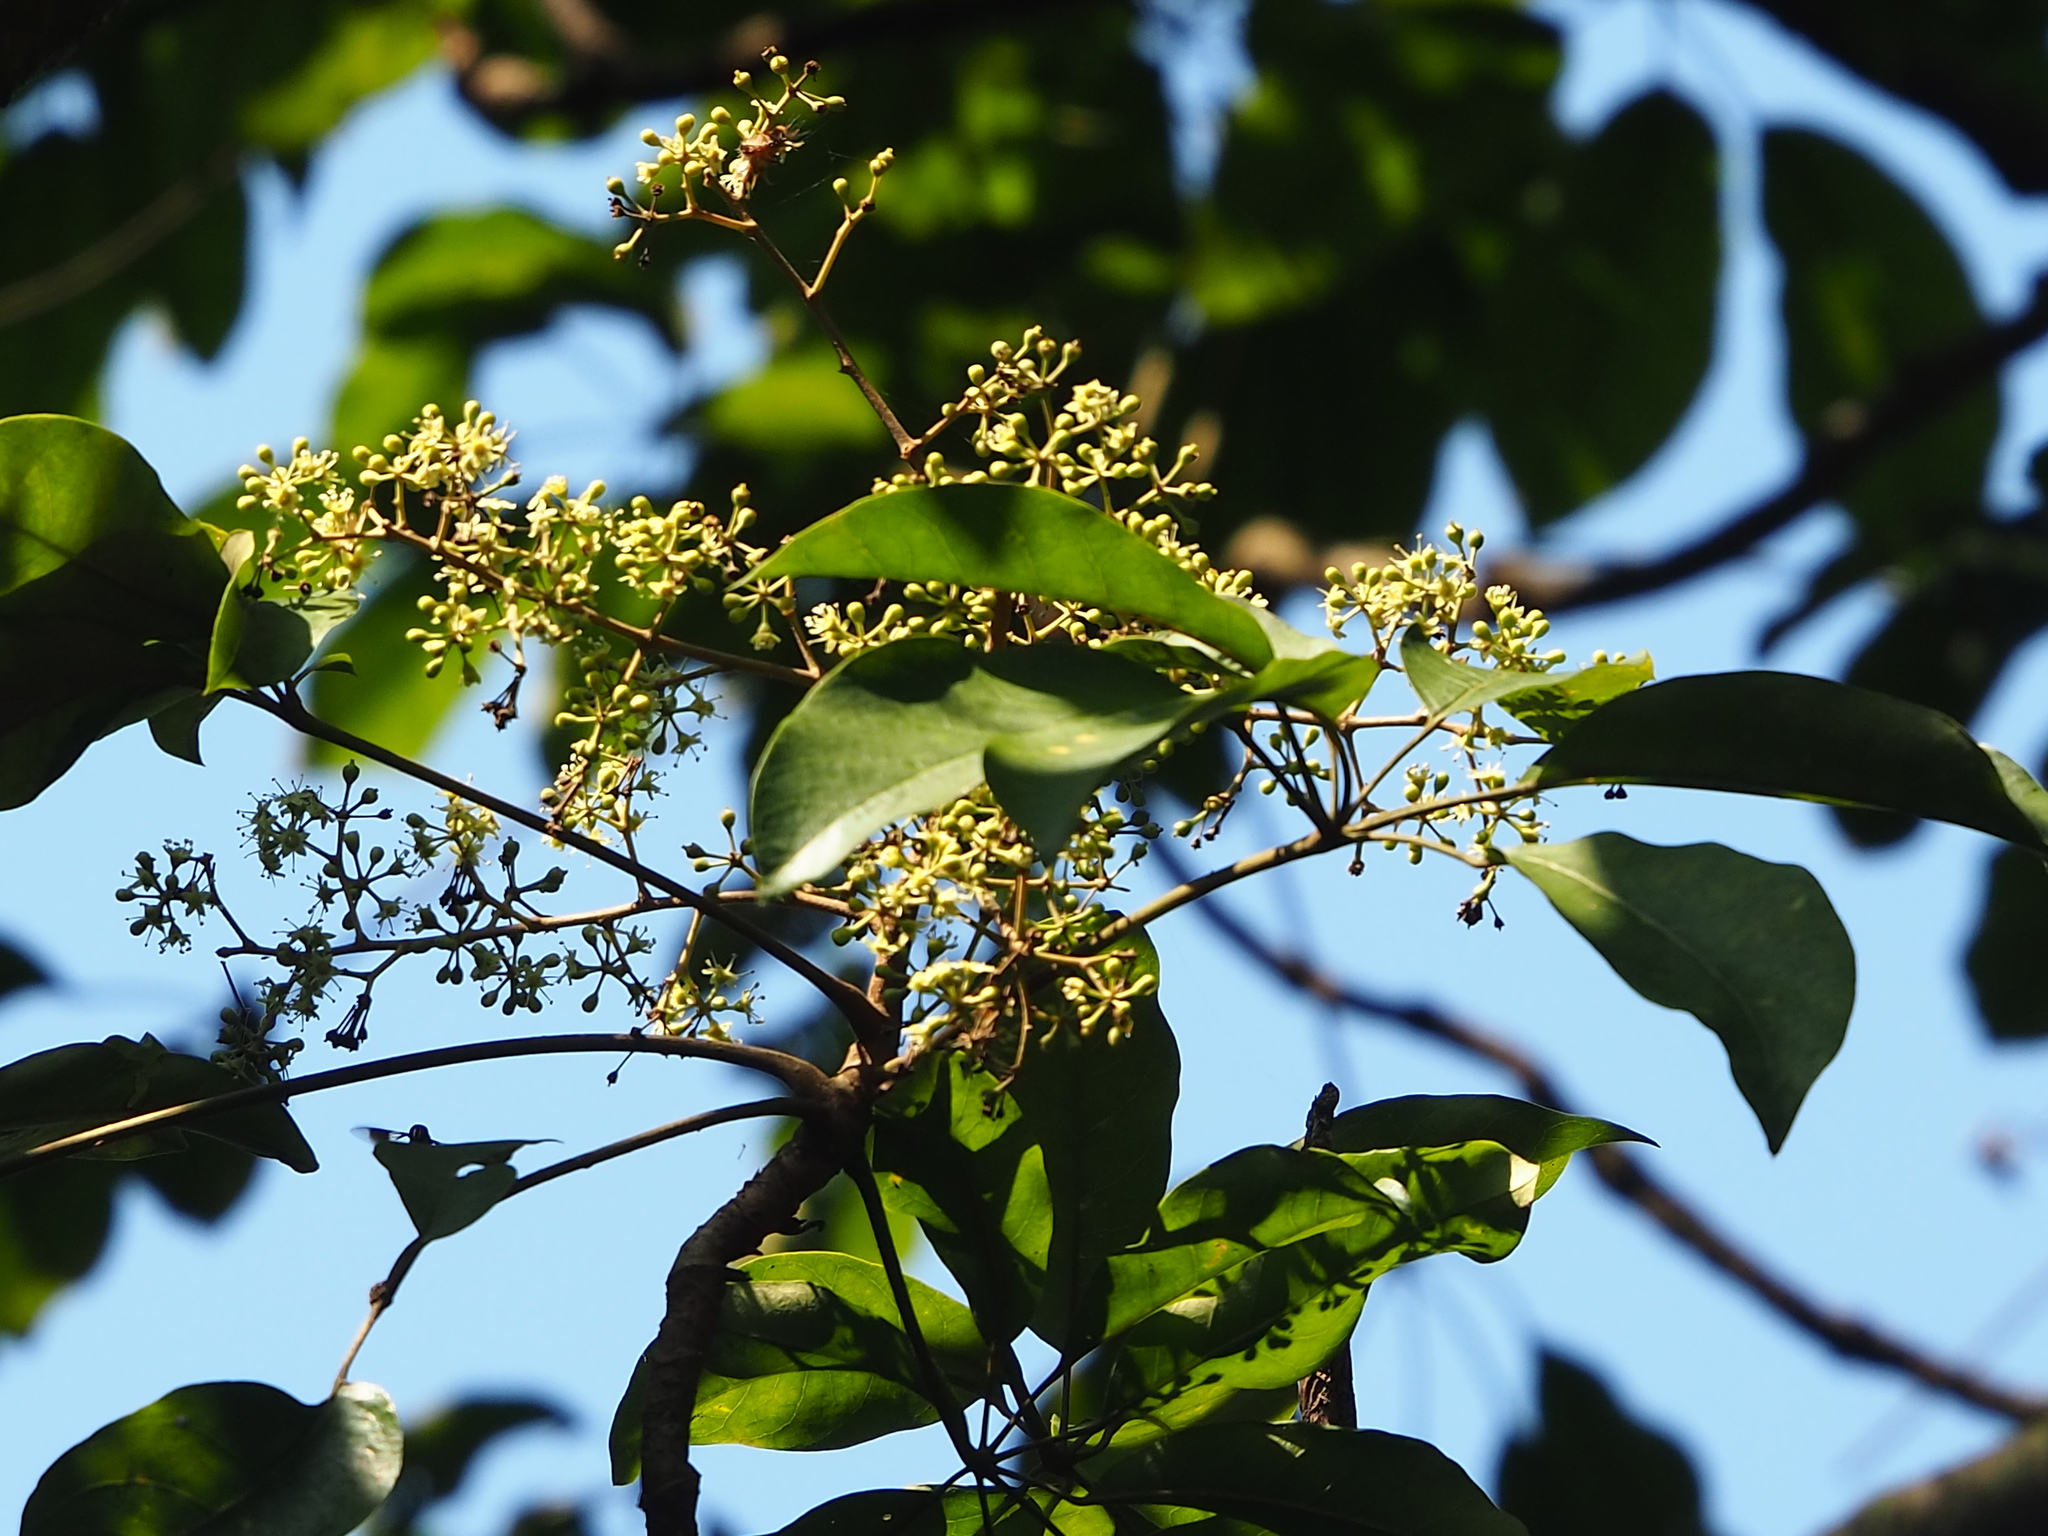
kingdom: Plantae
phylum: Tracheophyta
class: Magnoliopsida
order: Apiales
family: Araliaceae
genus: Heptapleurum
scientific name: Heptapleurum heptaphyllum
